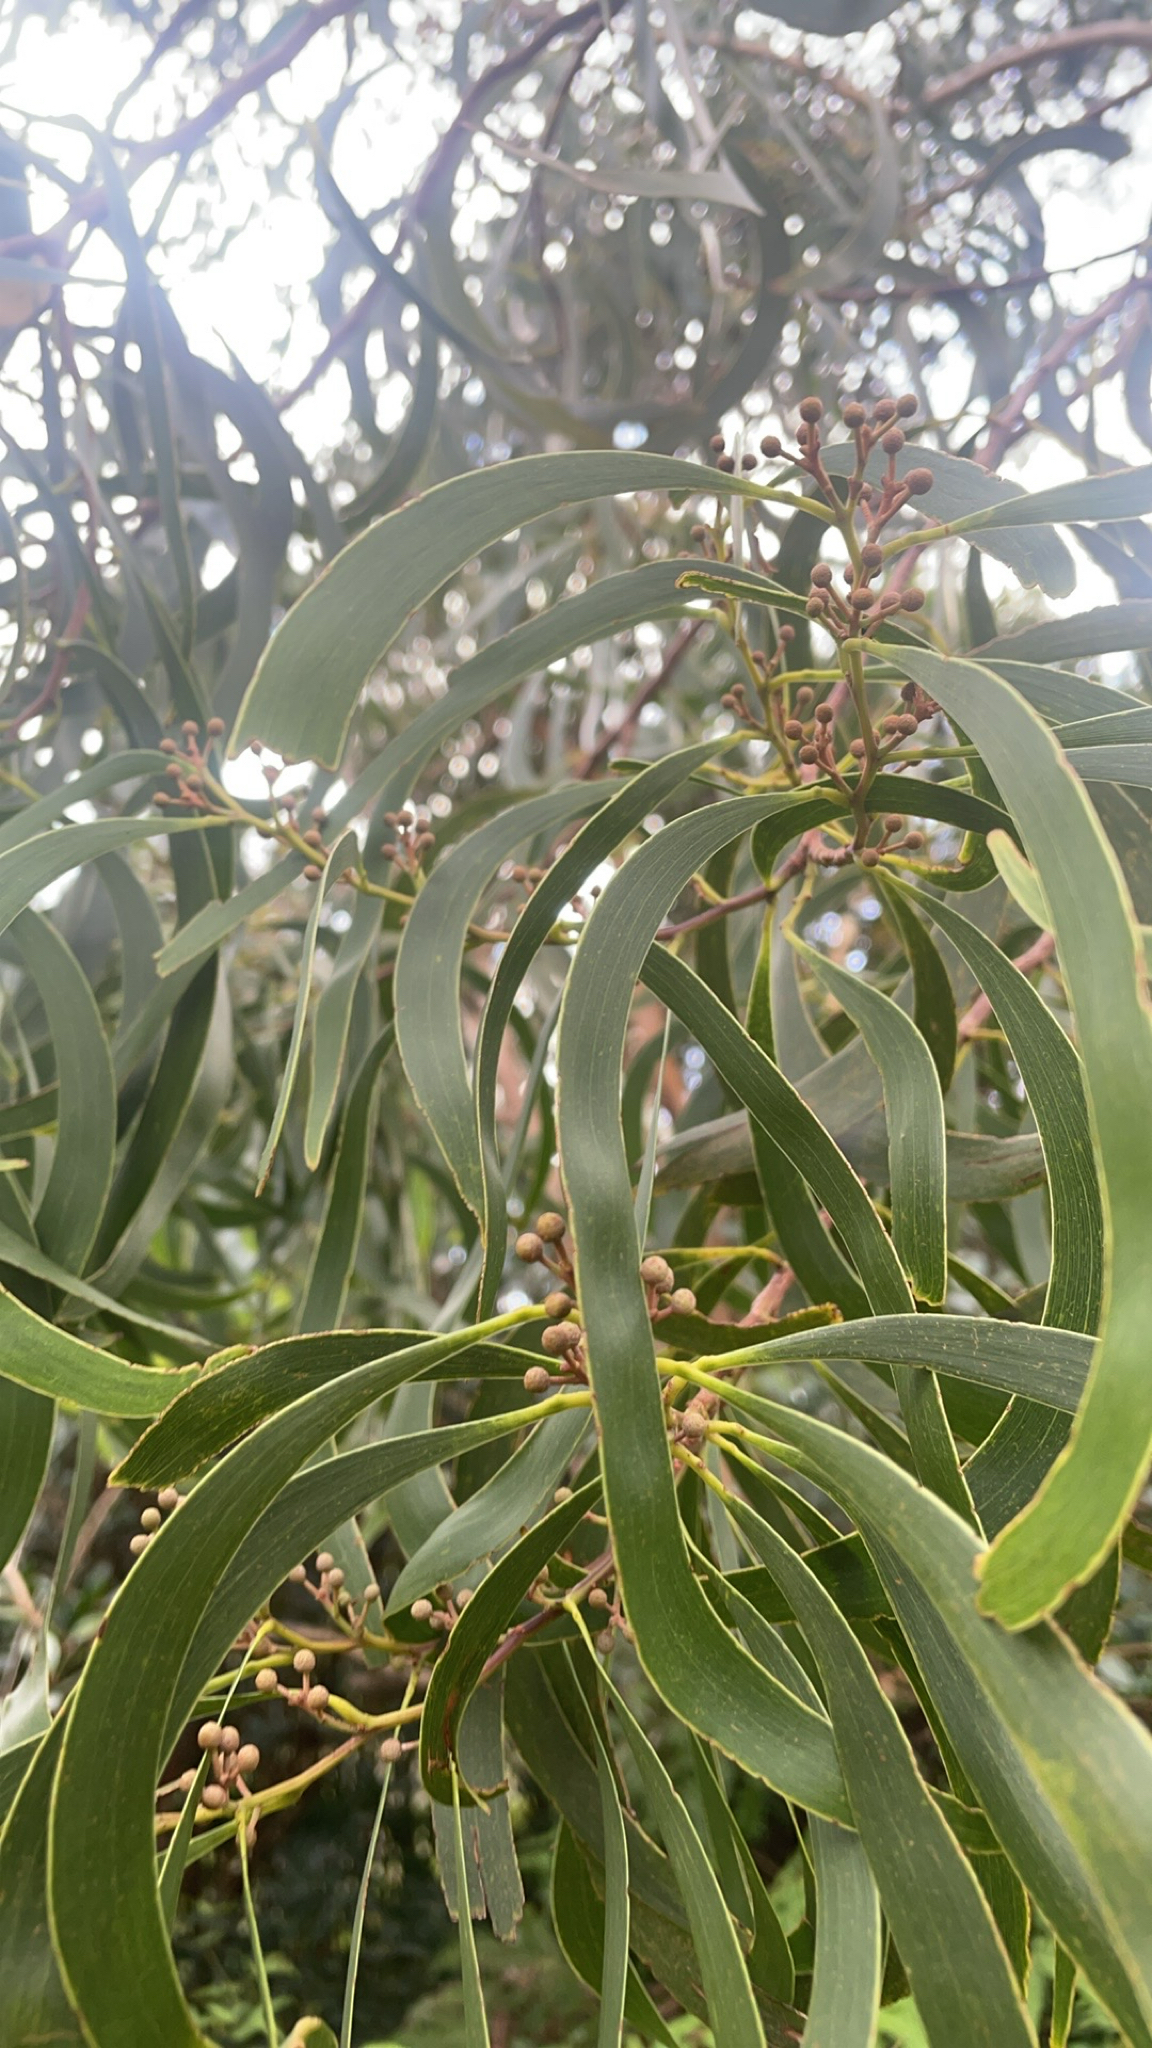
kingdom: Plantae
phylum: Tracheophyta
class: Magnoliopsida
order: Fabales
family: Fabaceae
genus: Acacia
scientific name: Acacia koa
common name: Gray koa
